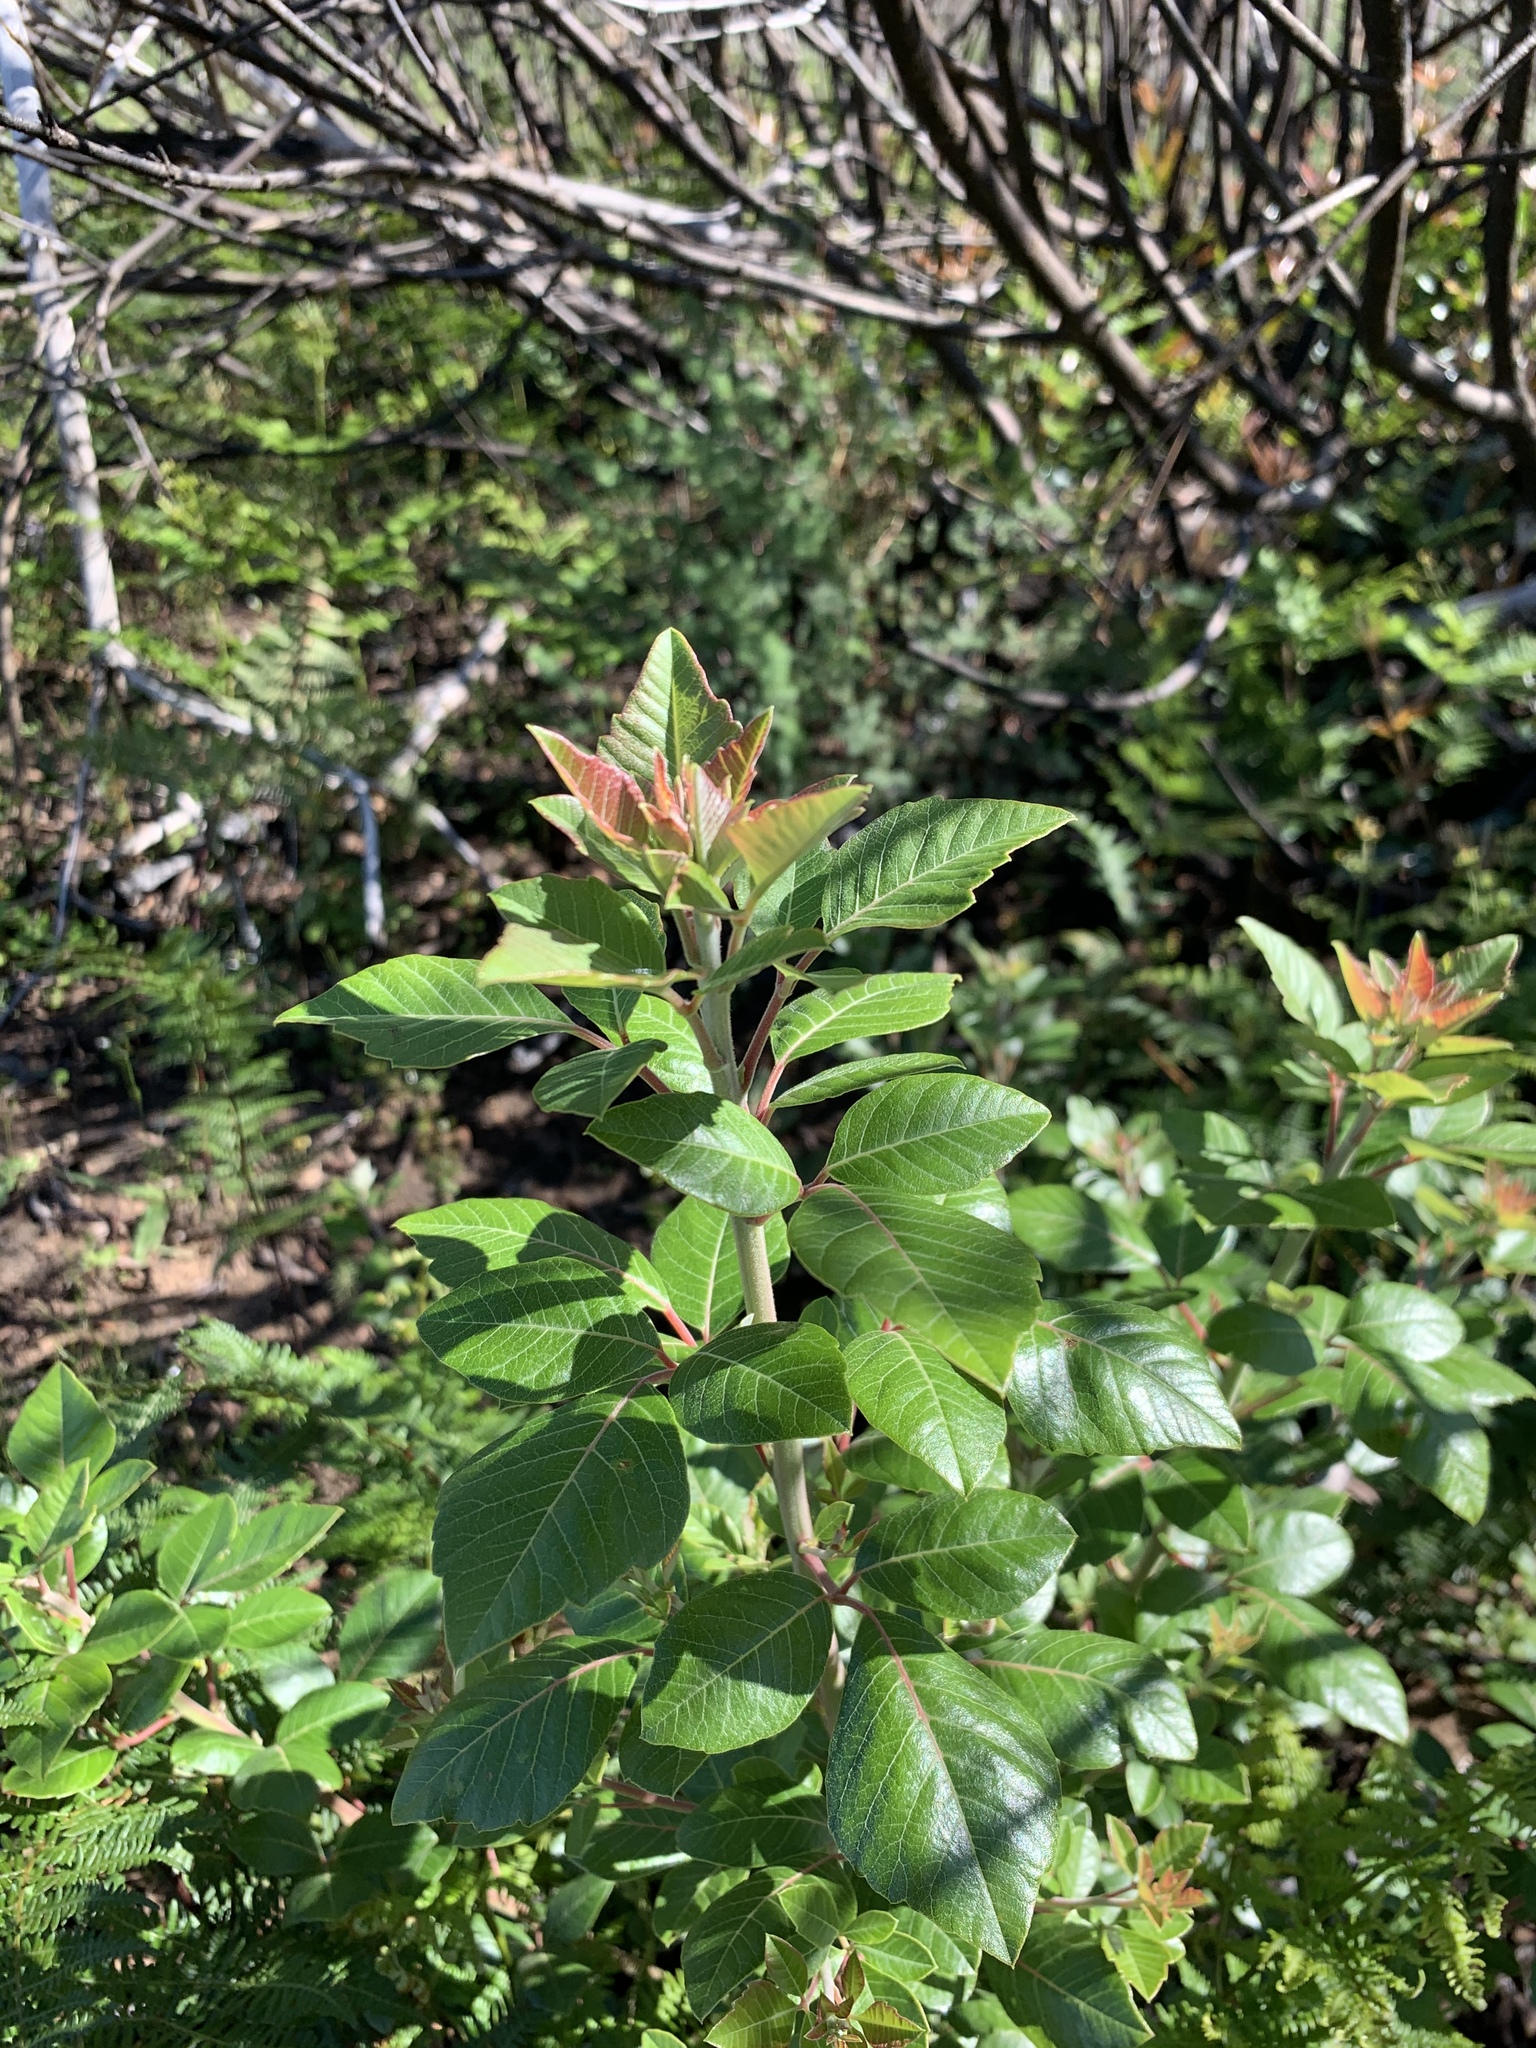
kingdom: Plantae
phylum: Tracheophyta
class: Magnoliopsida
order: Sapindales
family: Anacardiaceae
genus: Searsia
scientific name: Searsia tomentosa
